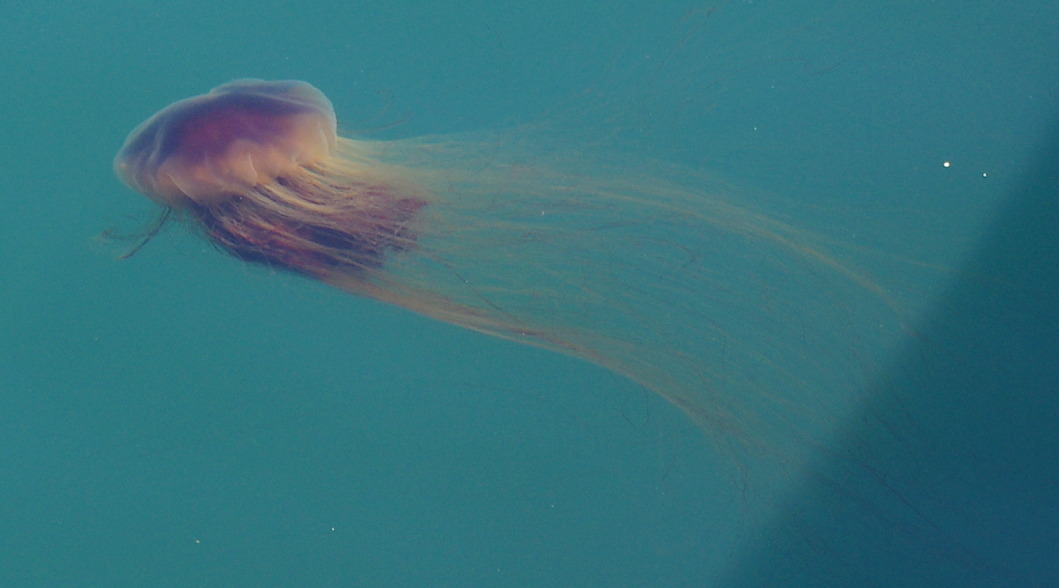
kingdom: Animalia
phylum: Cnidaria
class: Scyphozoa
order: Semaeostomeae
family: Cyaneidae
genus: Cyanea
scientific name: Cyanea
